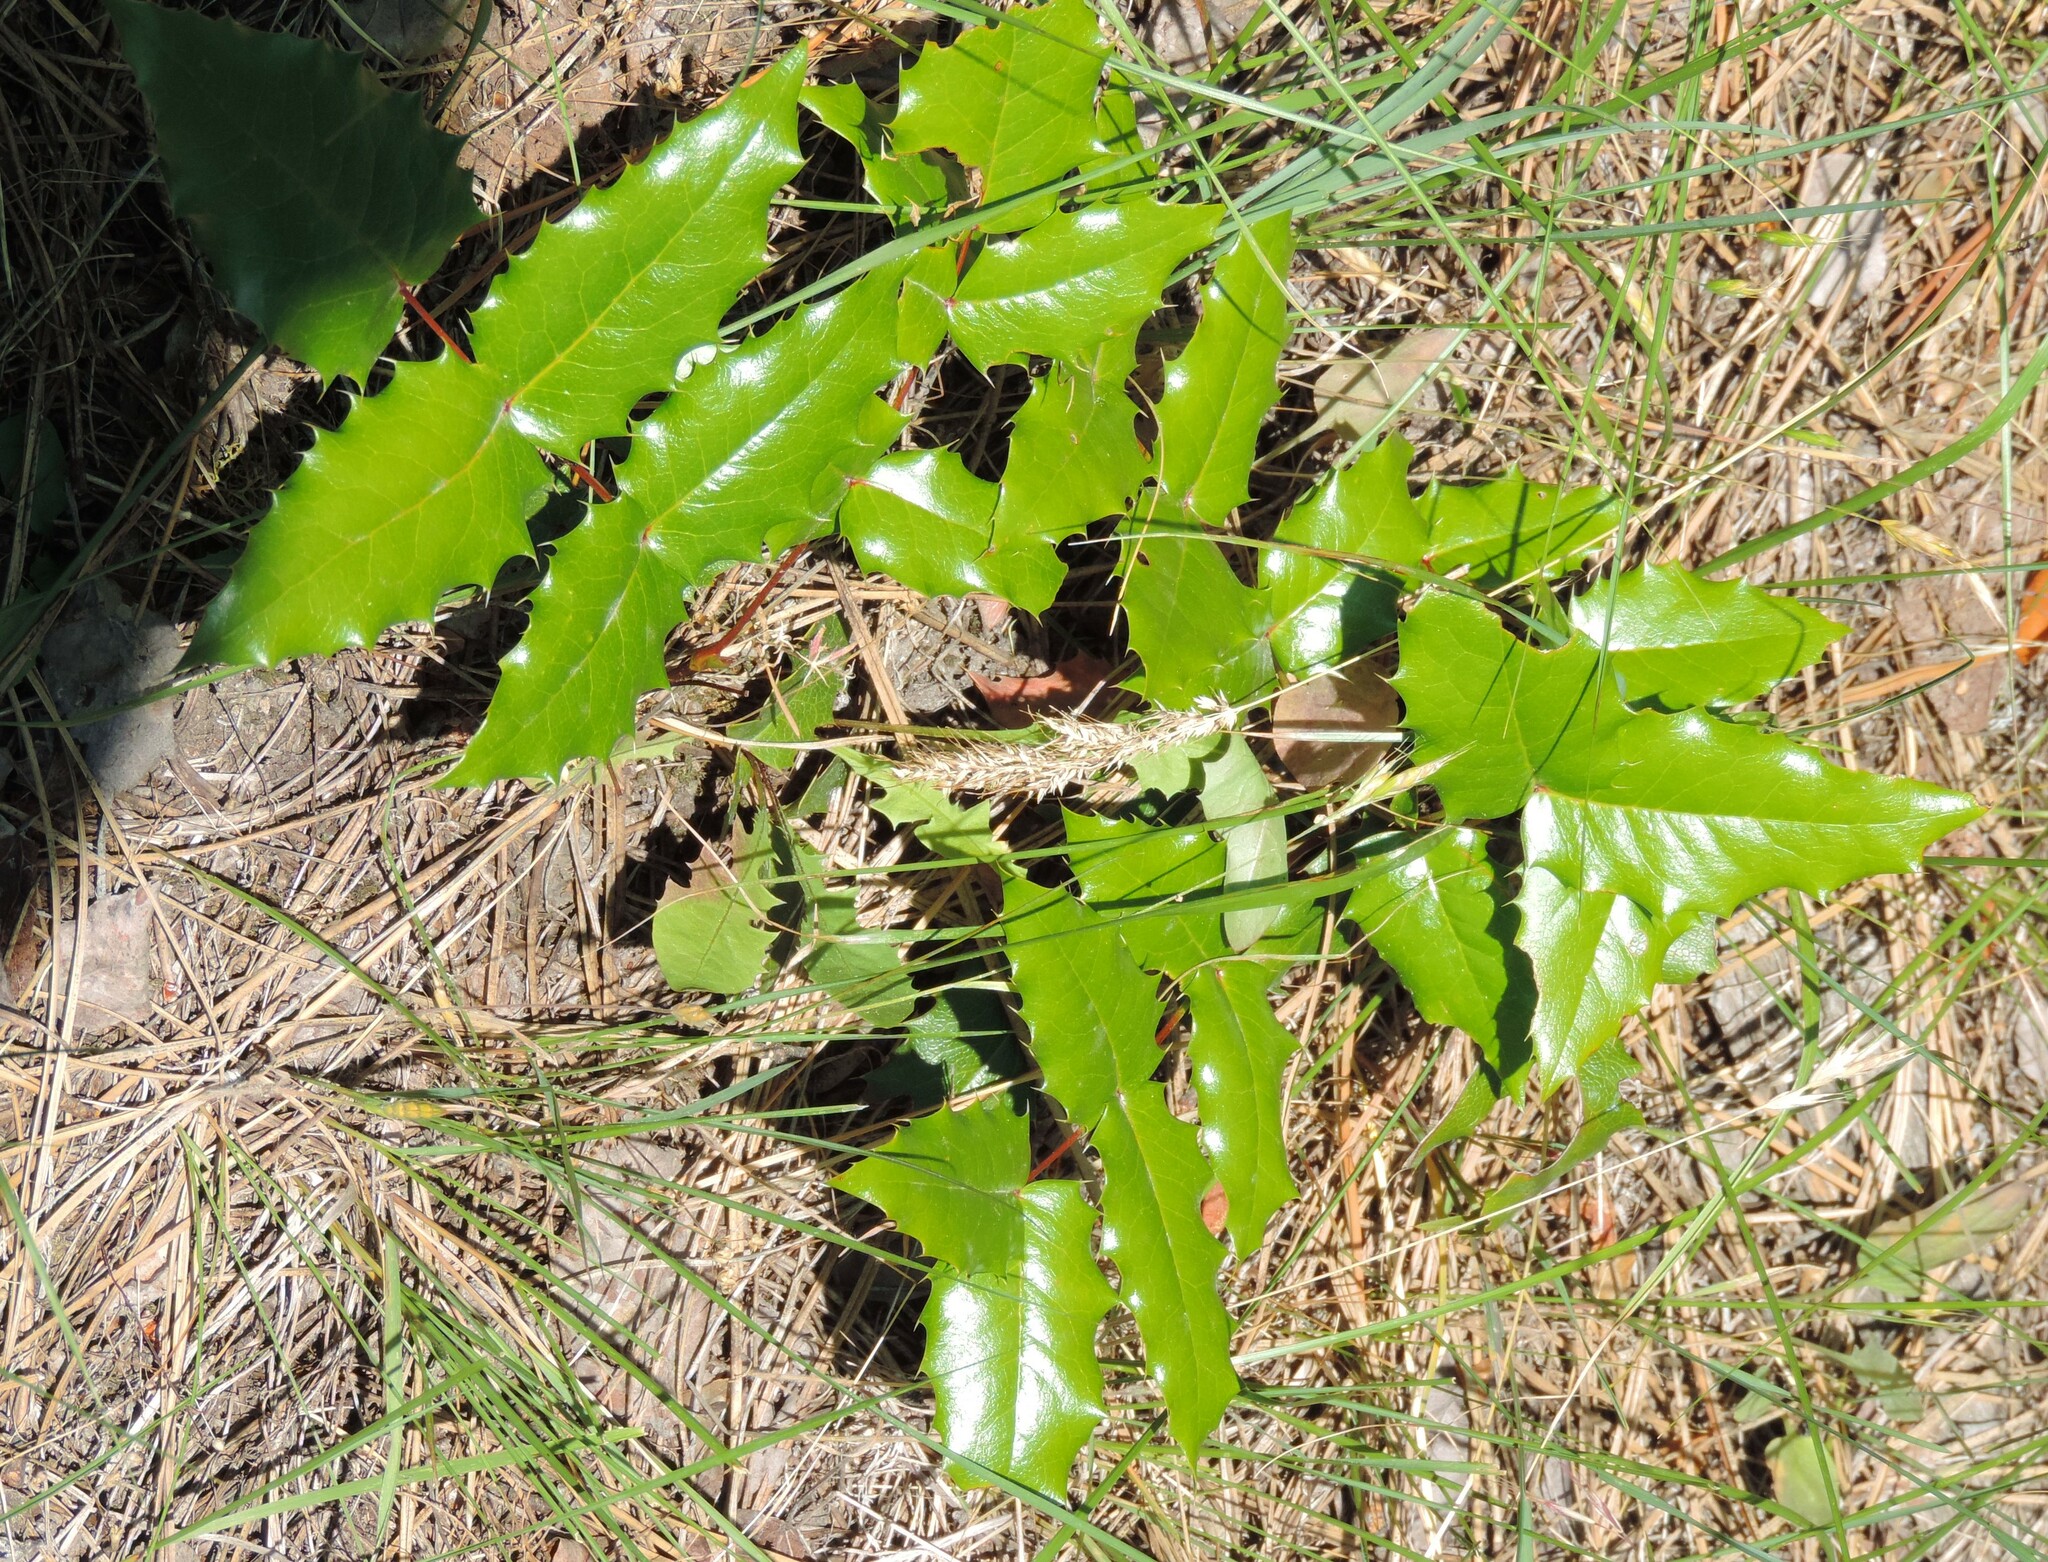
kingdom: Plantae
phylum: Tracheophyta
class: Magnoliopsida
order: Ranunculales
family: Berberidaceae
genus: Mahonia
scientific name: Mahonia aquifolium
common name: Oregon-grape
